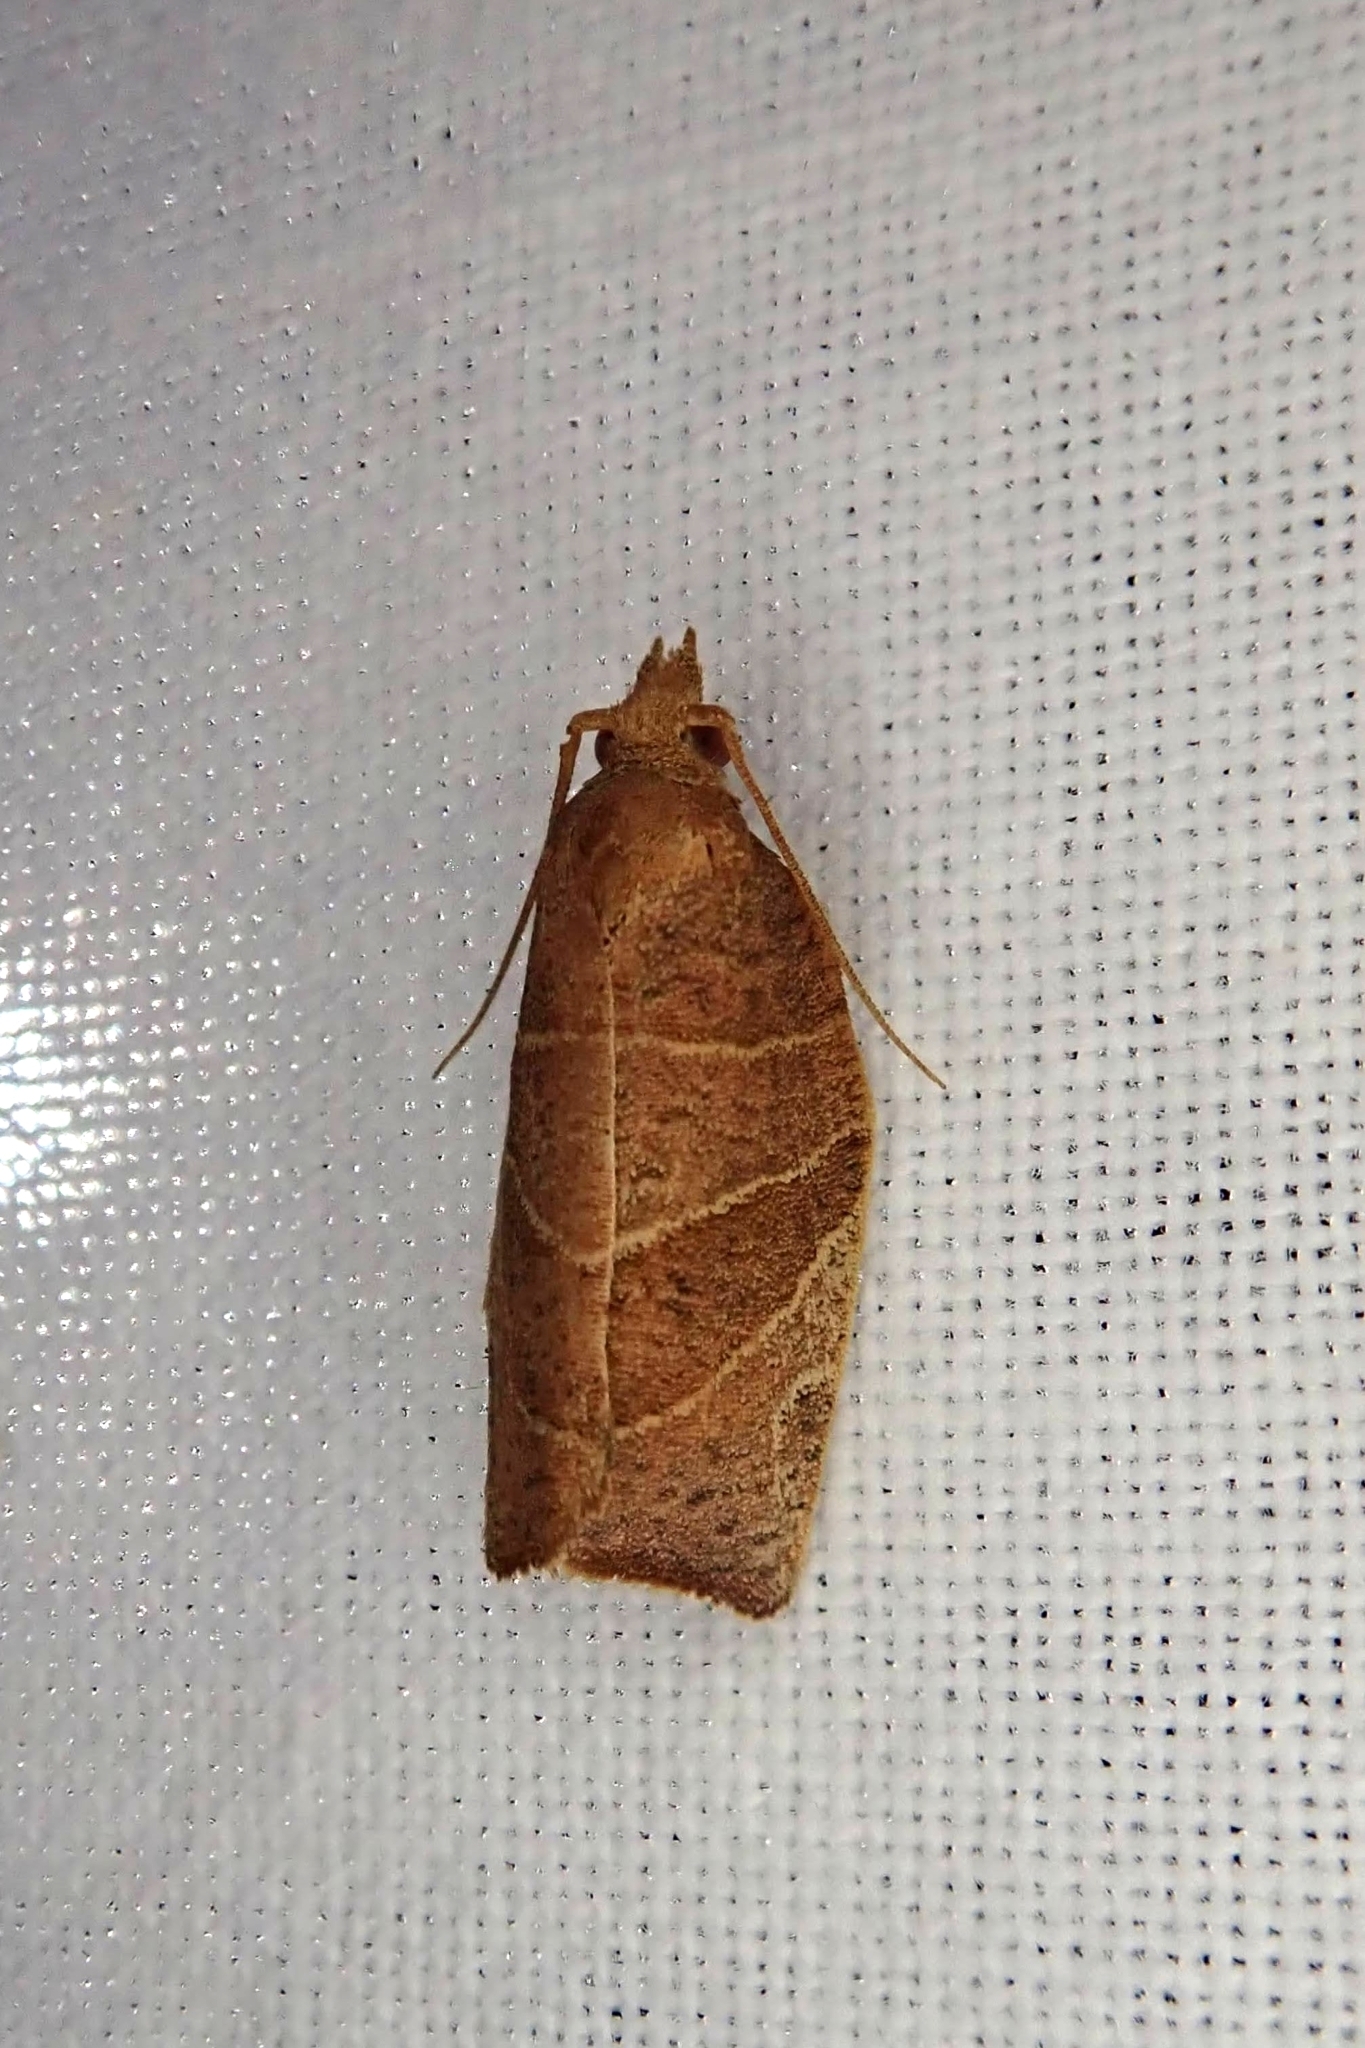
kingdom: Animalia
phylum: Arthropoda
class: Insecta
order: Lepidoptera
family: Tortricidae
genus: Pandemis
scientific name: Pandemis limitata
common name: Three-lined leafroller moth
